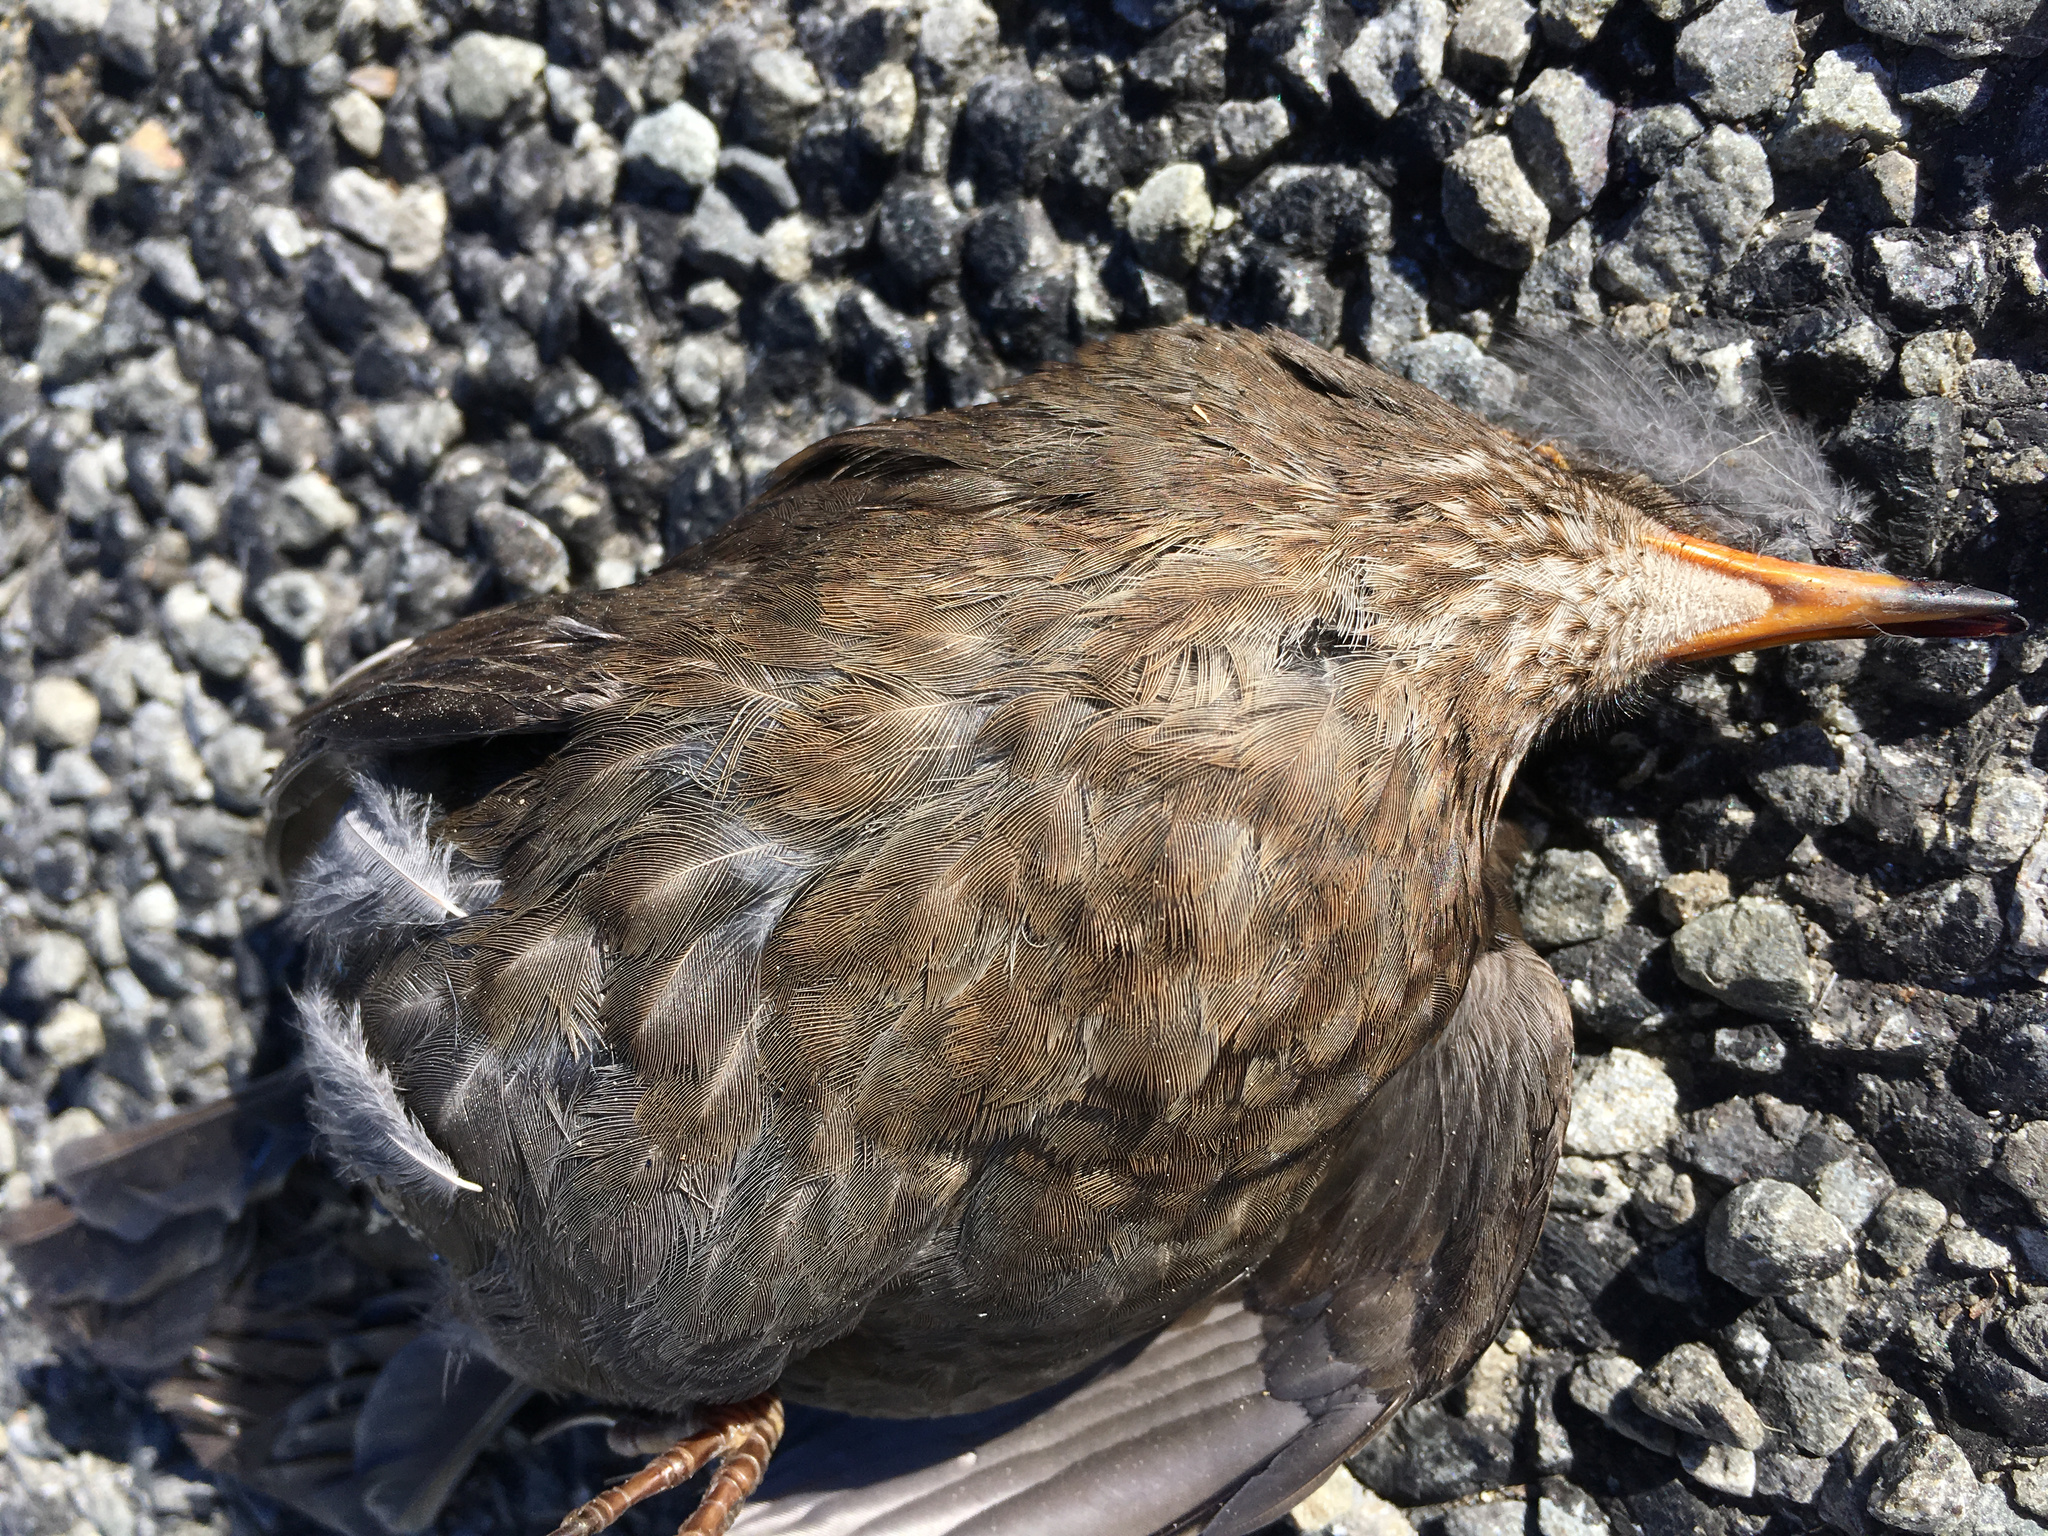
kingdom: Animalia
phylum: Chordata
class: Aves
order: Passeriformes
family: Turdidae
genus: Turdus
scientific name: Turdus merula
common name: Common blackbird
